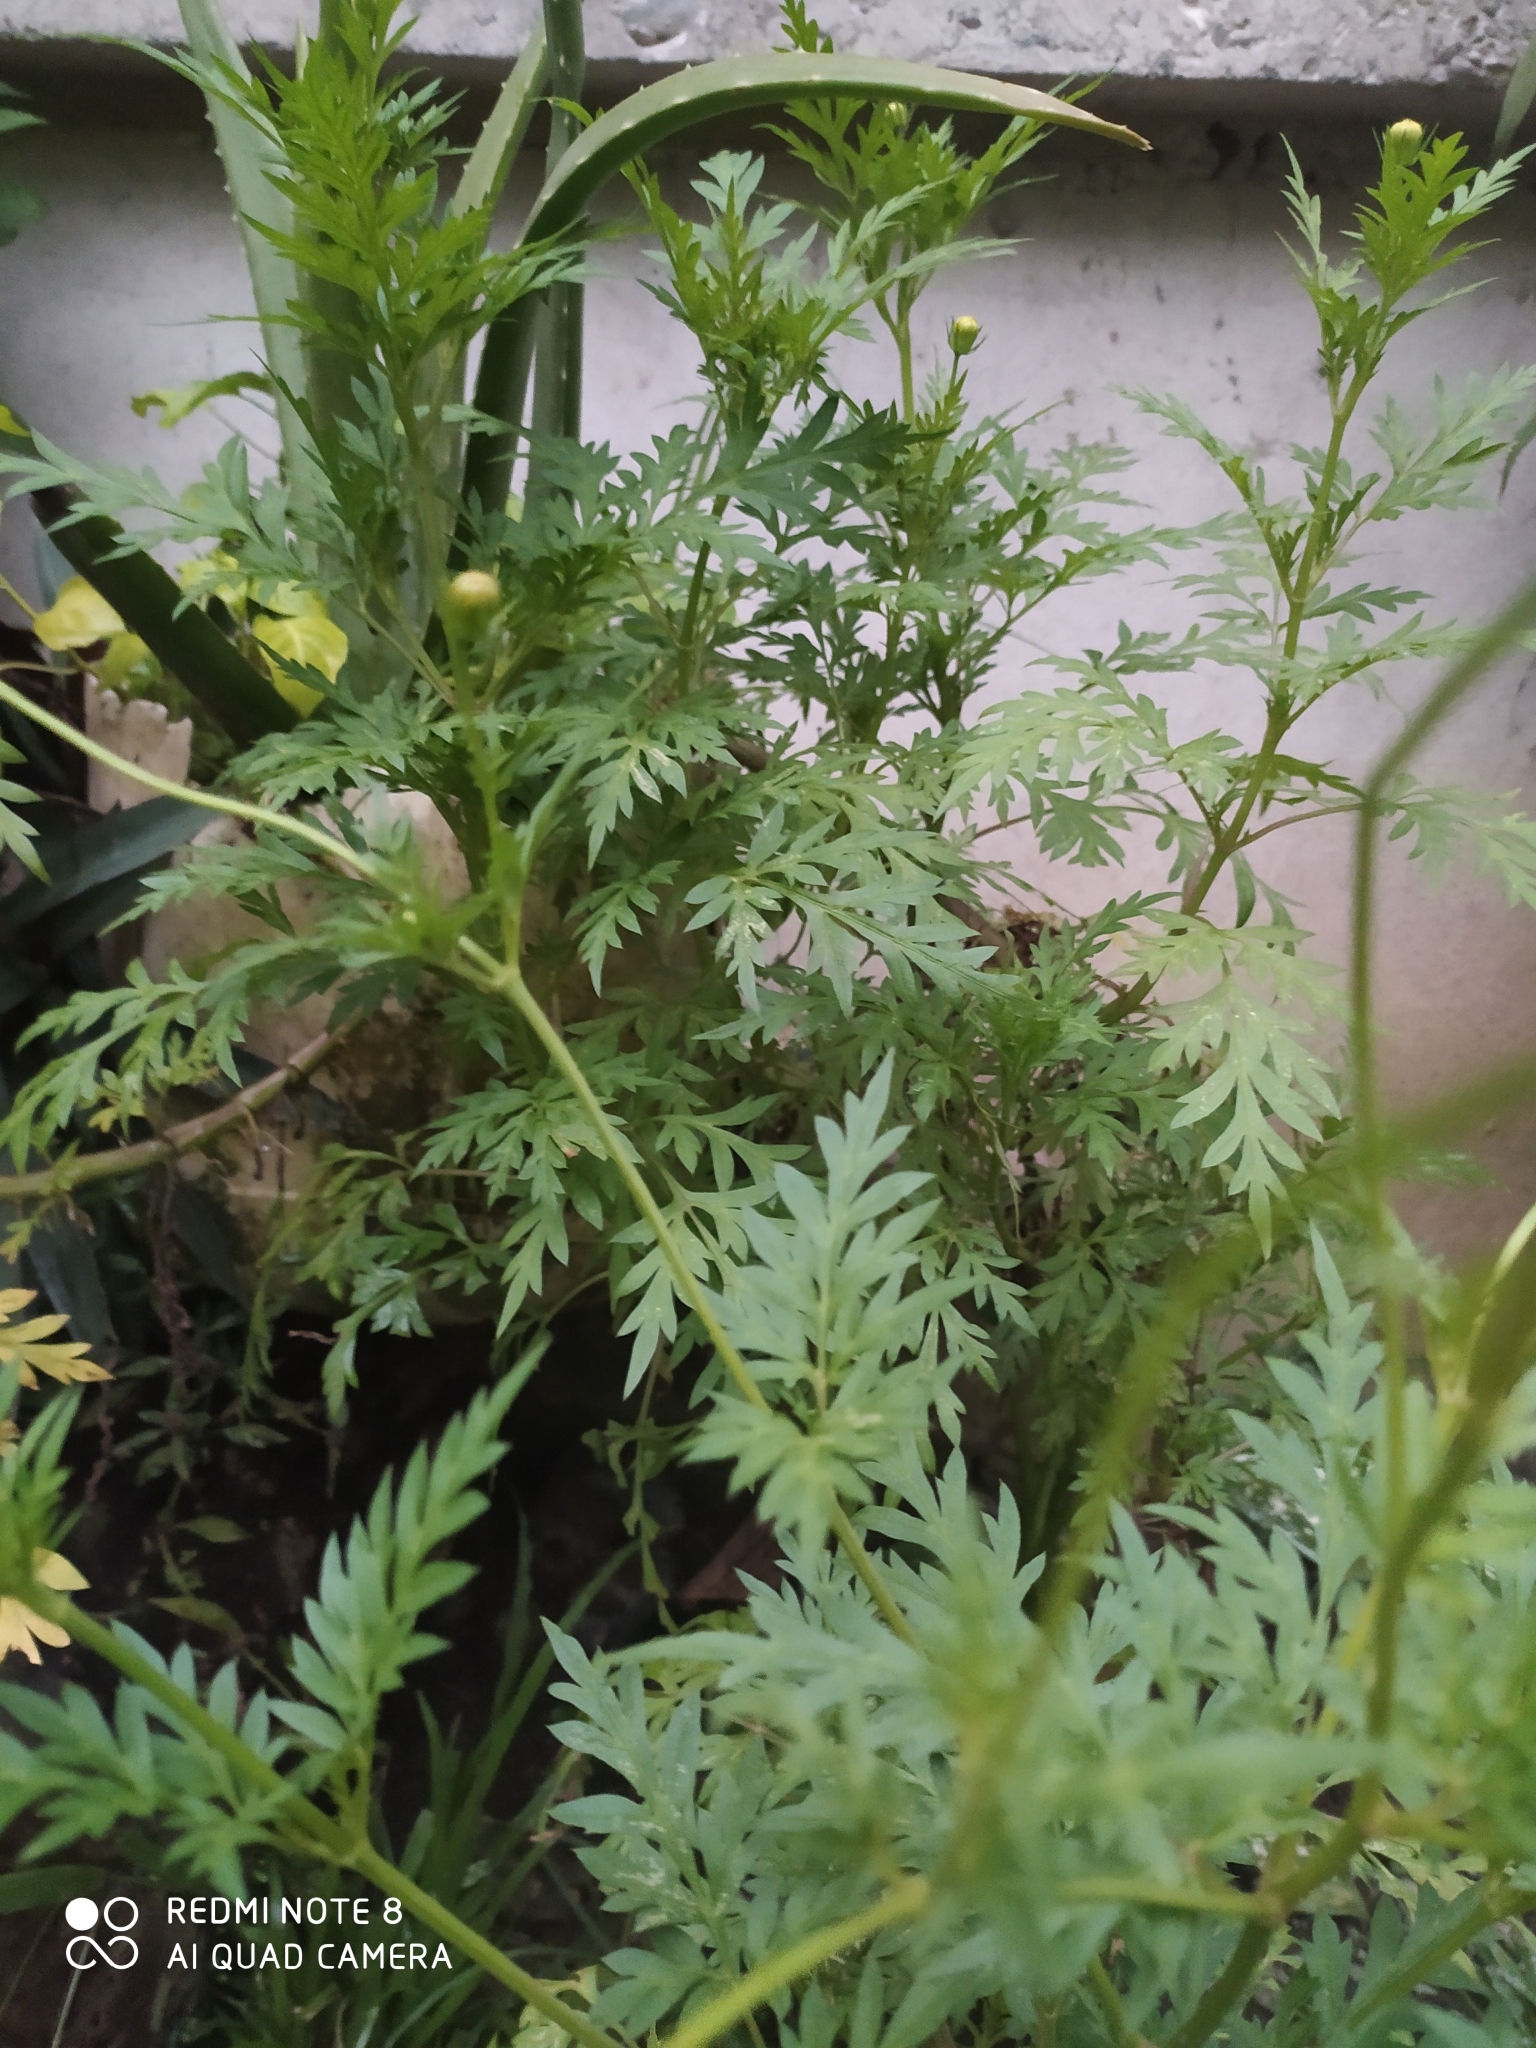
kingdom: Plantae
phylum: Tracheophyta
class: Magnoliopsida
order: Asterales
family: Asteraceae
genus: Cosmos
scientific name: Cosmos sulphureus
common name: Sulphur cosmos
